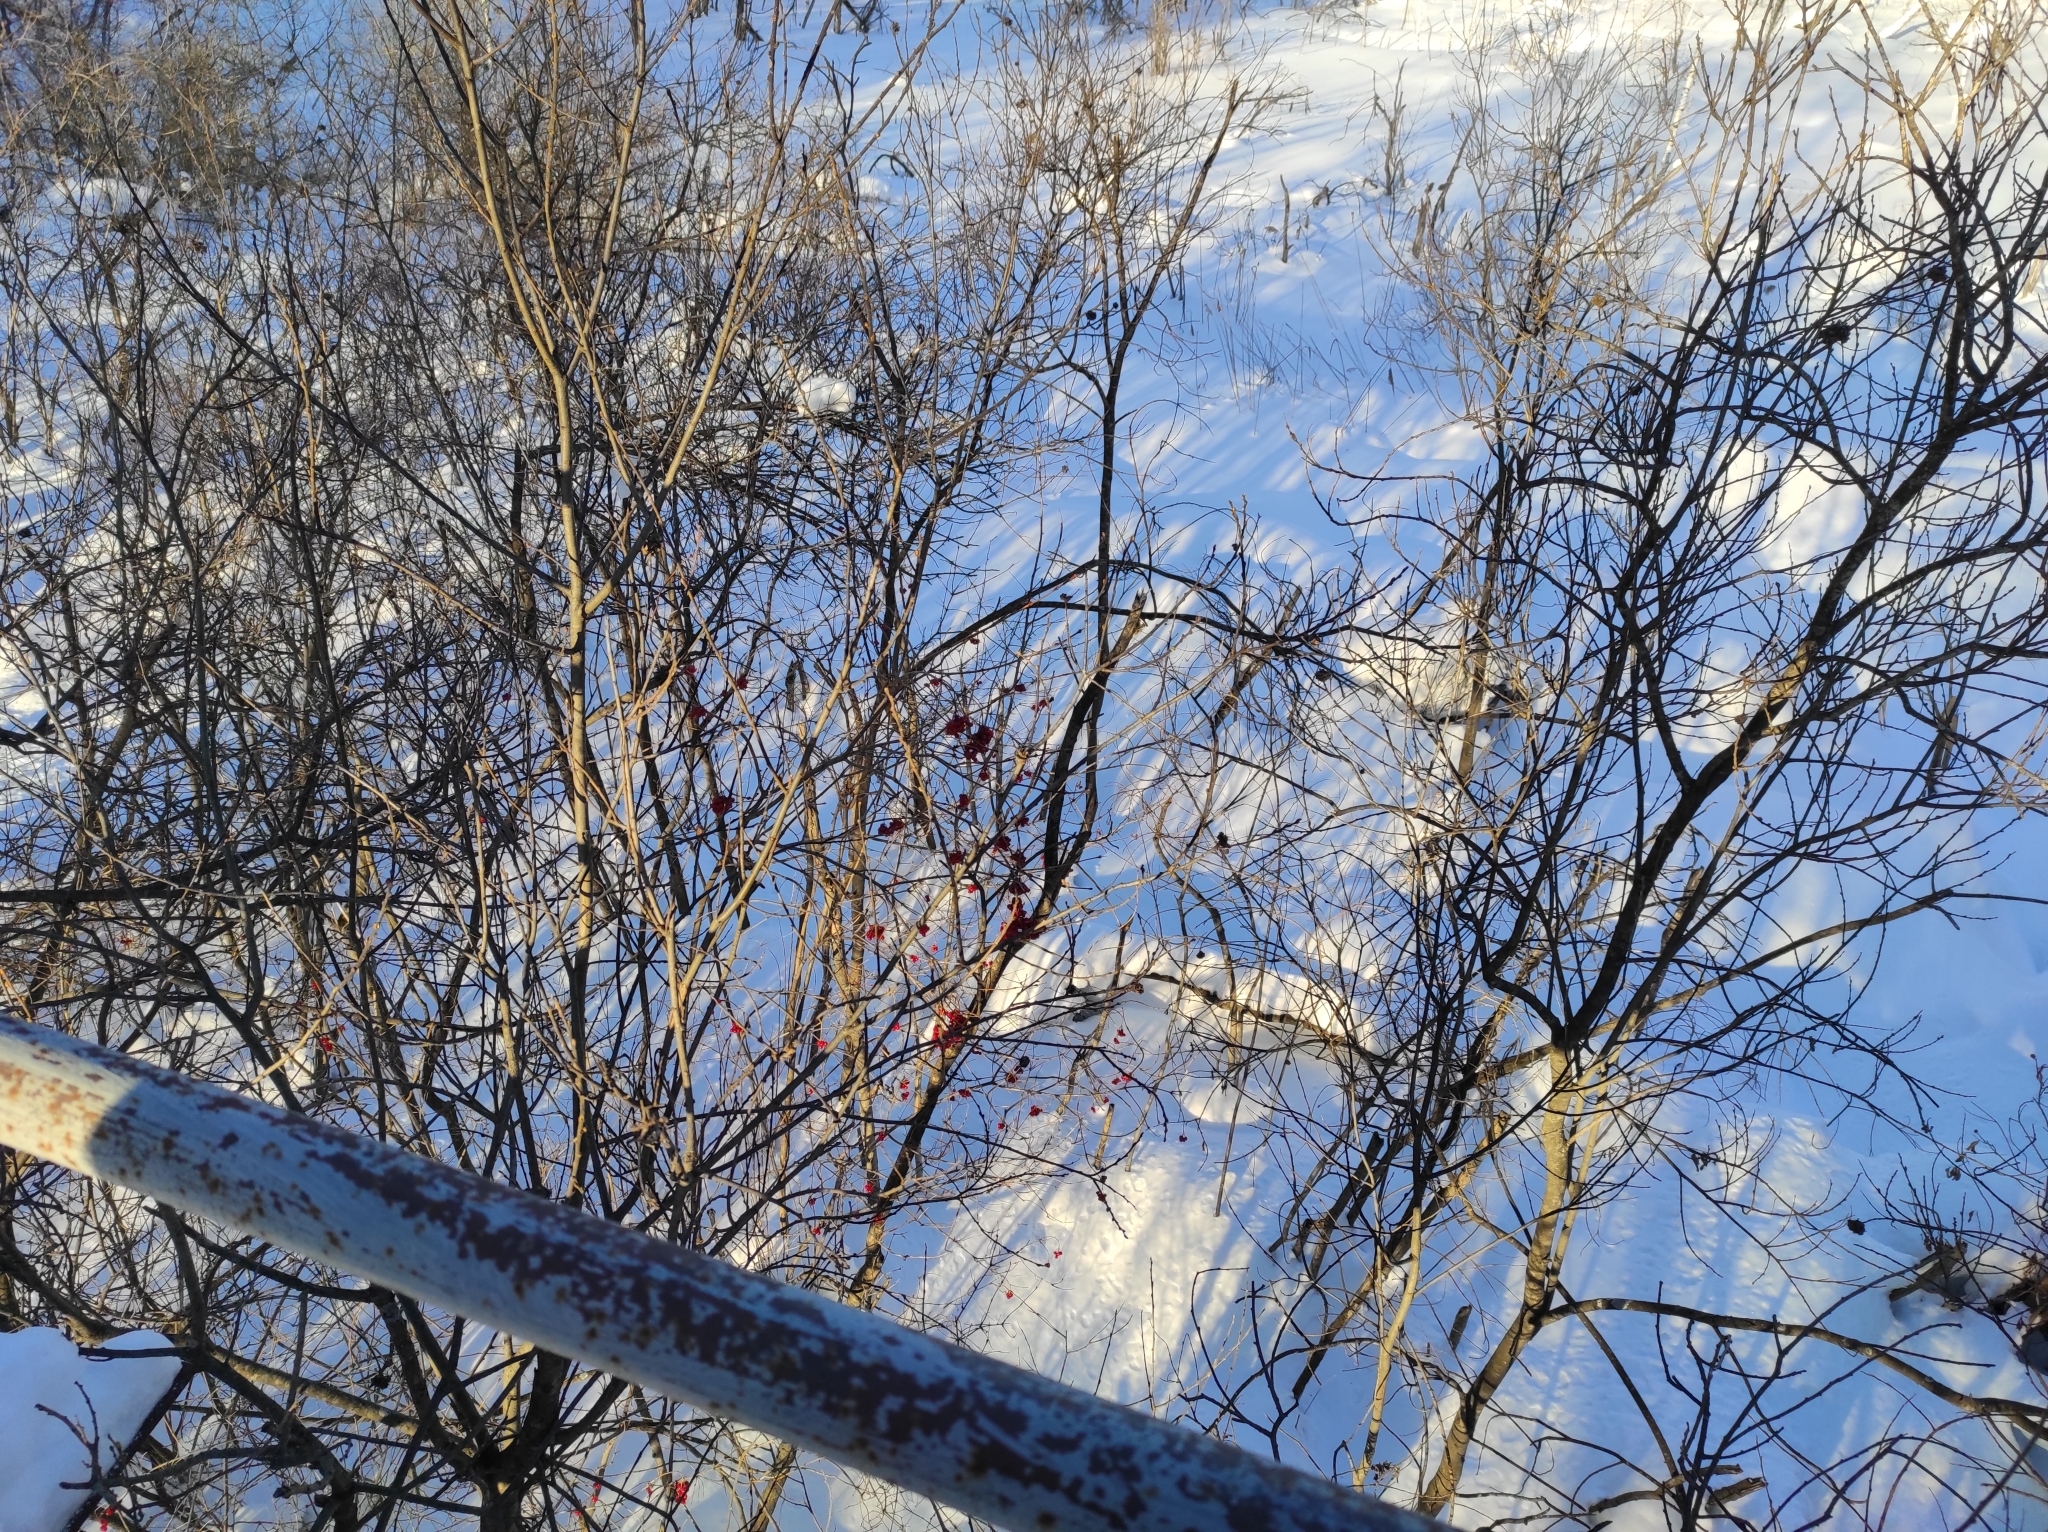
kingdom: Plantae
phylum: Tracheophyta
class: Magnoliopsida
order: Dipsacales
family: Viburnaceae
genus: Viburnum
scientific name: Viburnum opulus
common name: Guelder-rose
